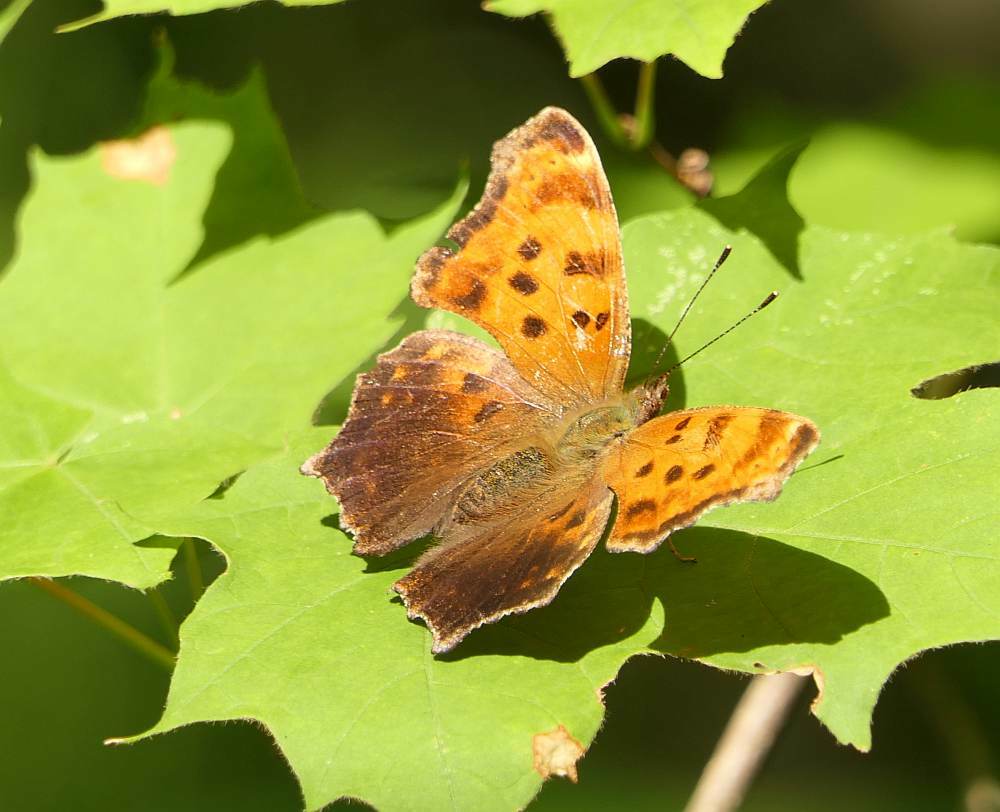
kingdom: Animalia
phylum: Arthropoda
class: Insecta
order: Lepidoptera
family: Nymphalidae
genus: Polygonia
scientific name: Polygonia comma
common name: Eastern comma
